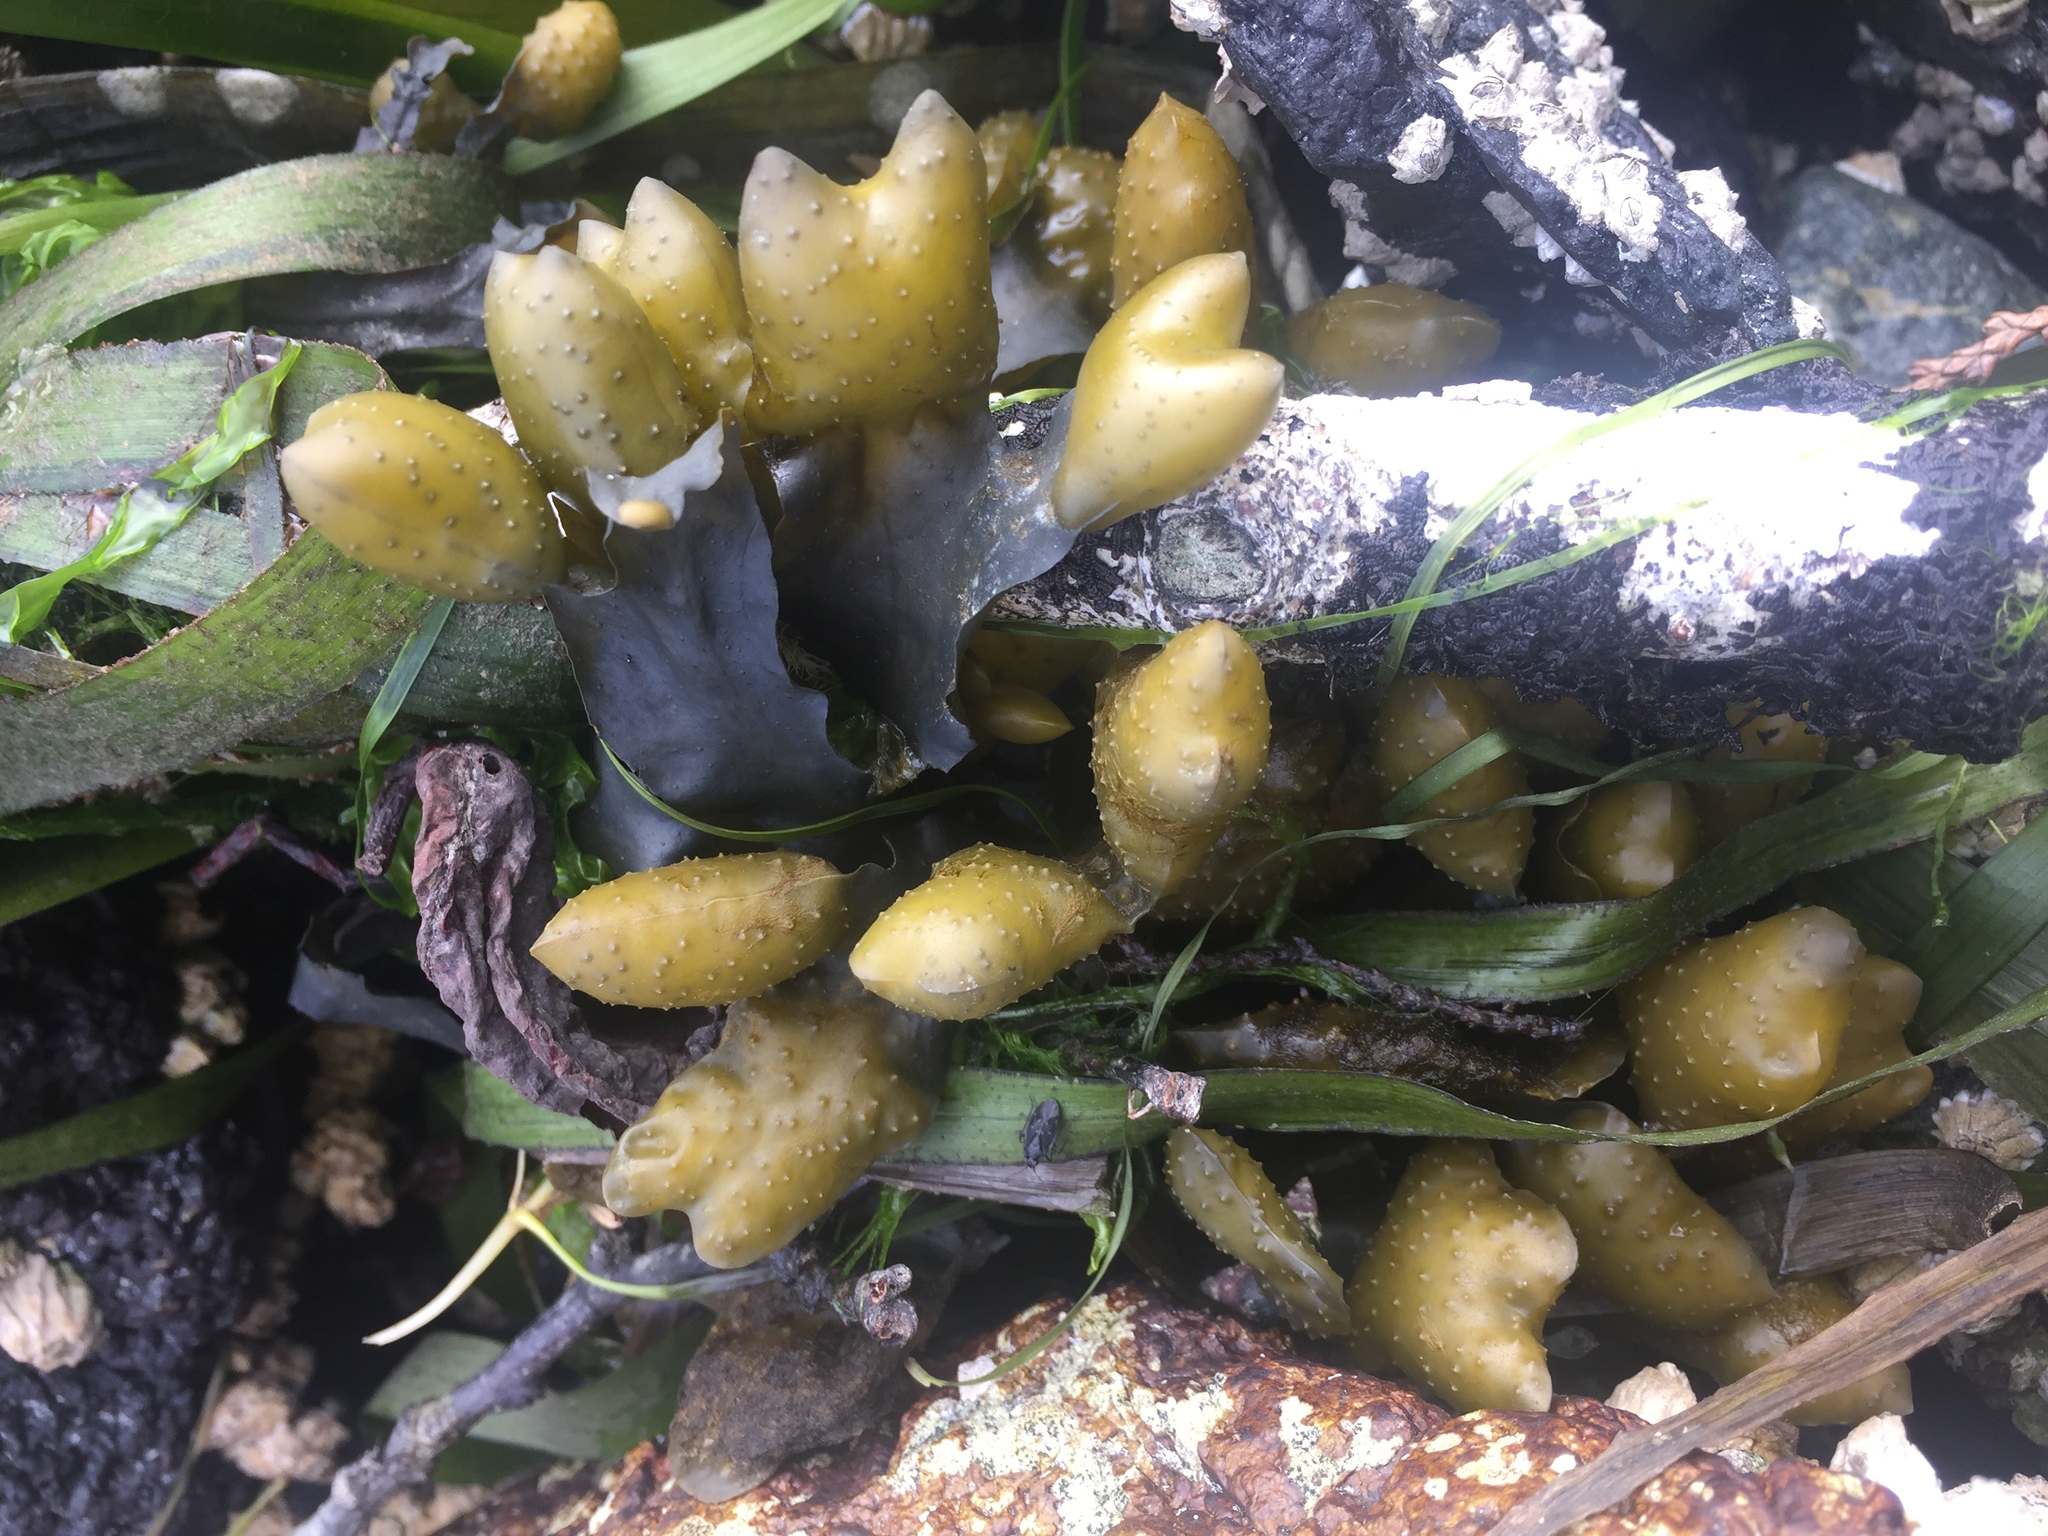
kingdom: Chromista
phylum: Ochrophyta
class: Phaeophyceae
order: Fucales
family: Fucaceae
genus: Fucus
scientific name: Fucus distichus
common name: Rockweed
